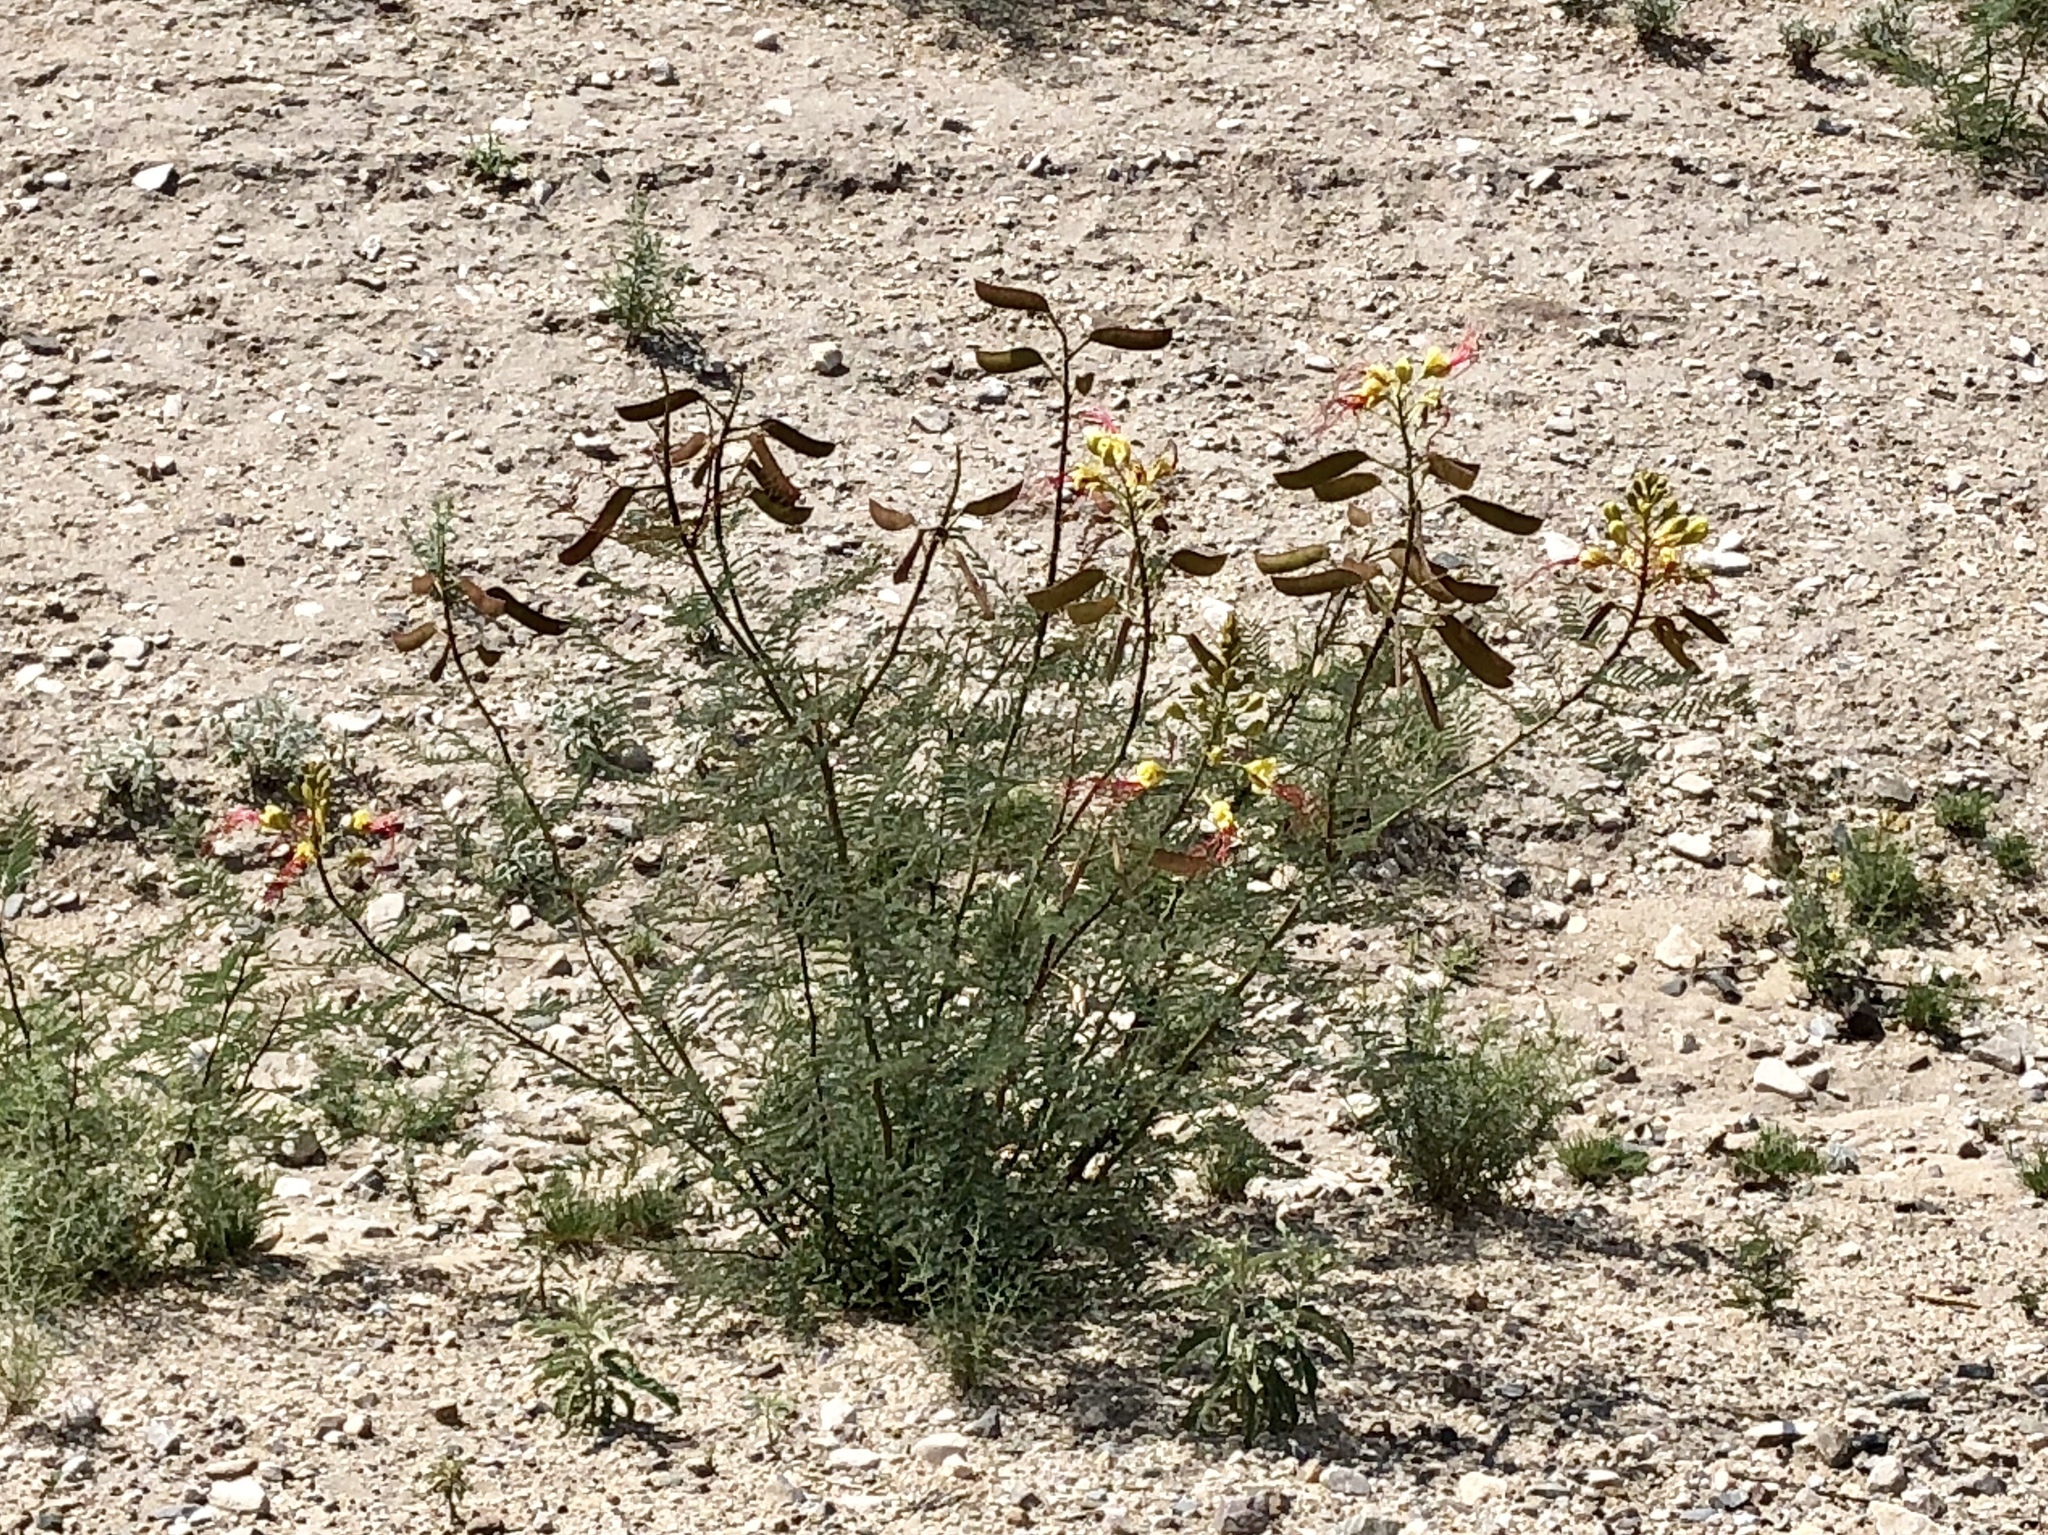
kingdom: Plantae
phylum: Tracheophyta
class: Magnoliopsida
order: Fabales
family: Fabaceae
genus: Erythrostemon
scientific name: Erythrostemon gilliesii
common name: Bird-of-paradise shrub
